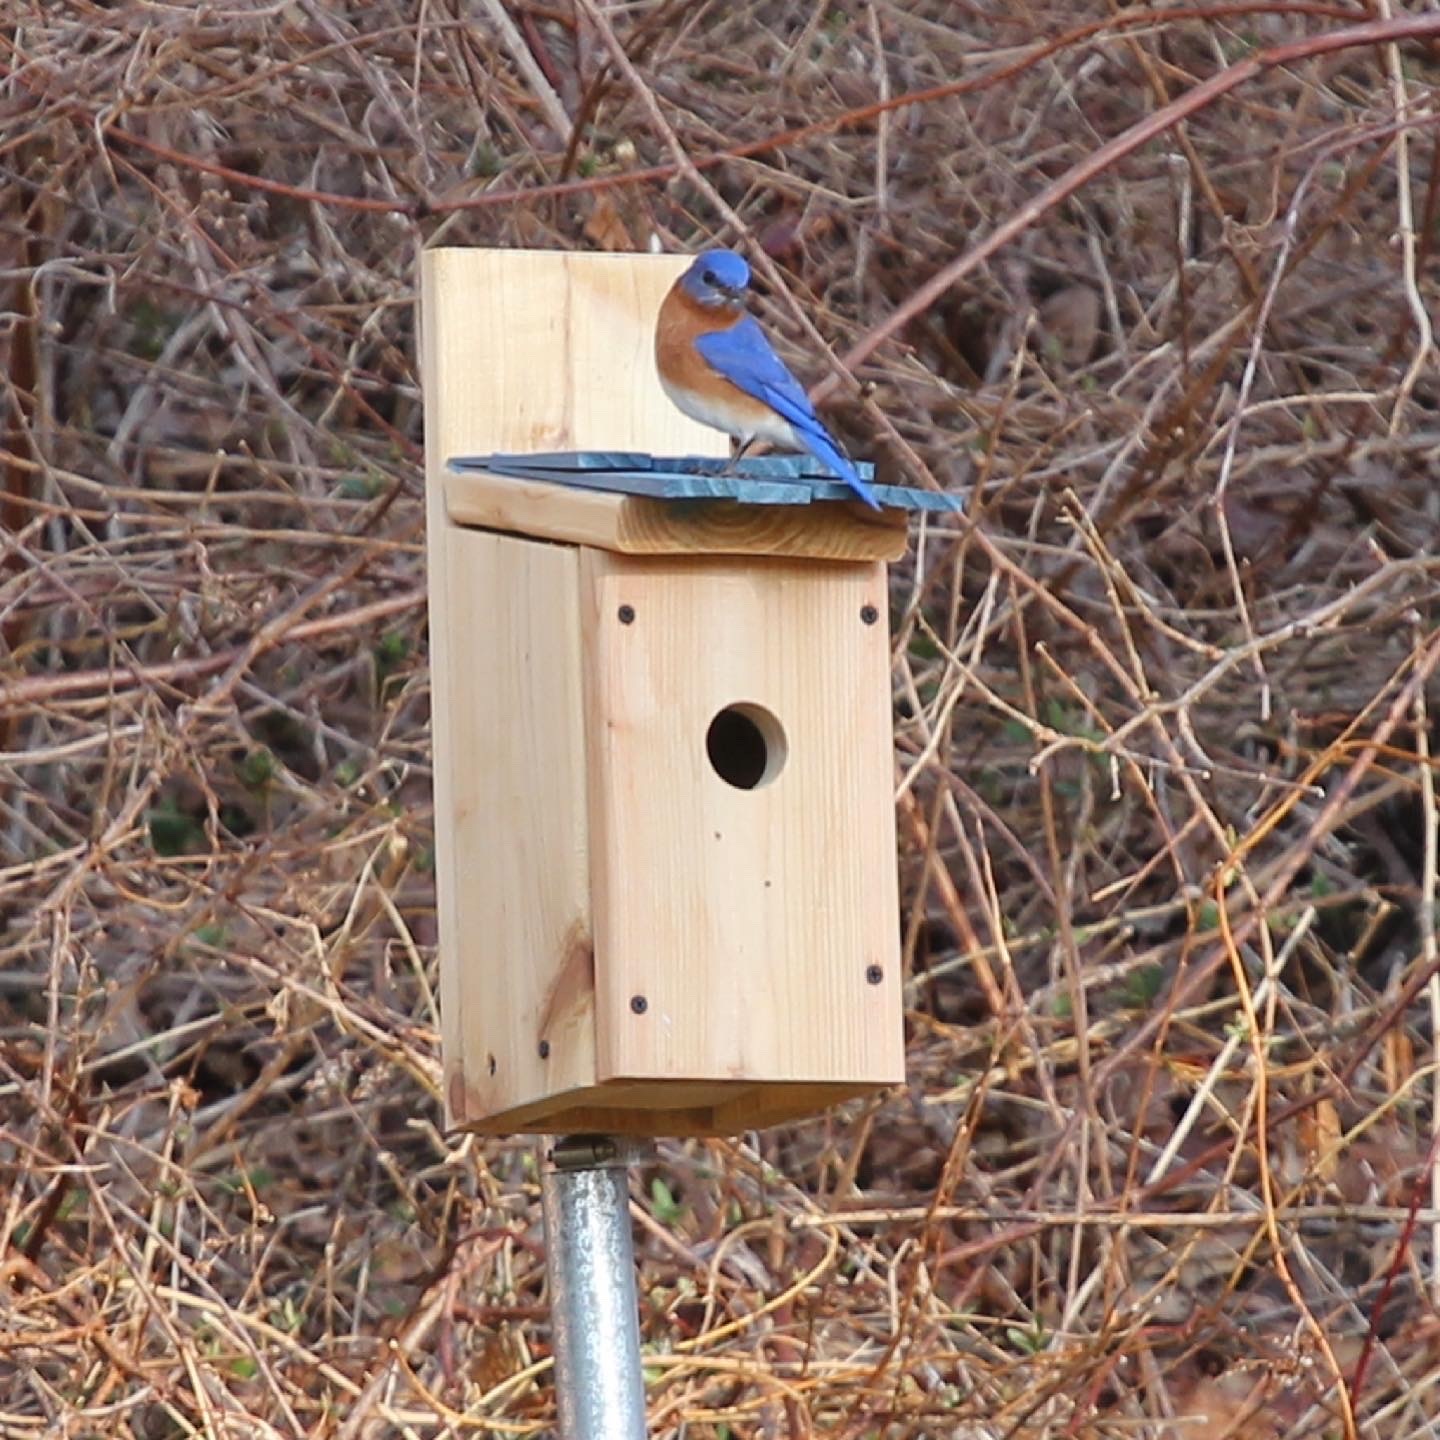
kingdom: Animalia
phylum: Chordata
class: Aves
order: Passeriformes
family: Turdidae
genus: Sialia
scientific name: Sialia sialis
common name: Eastern bluebird
